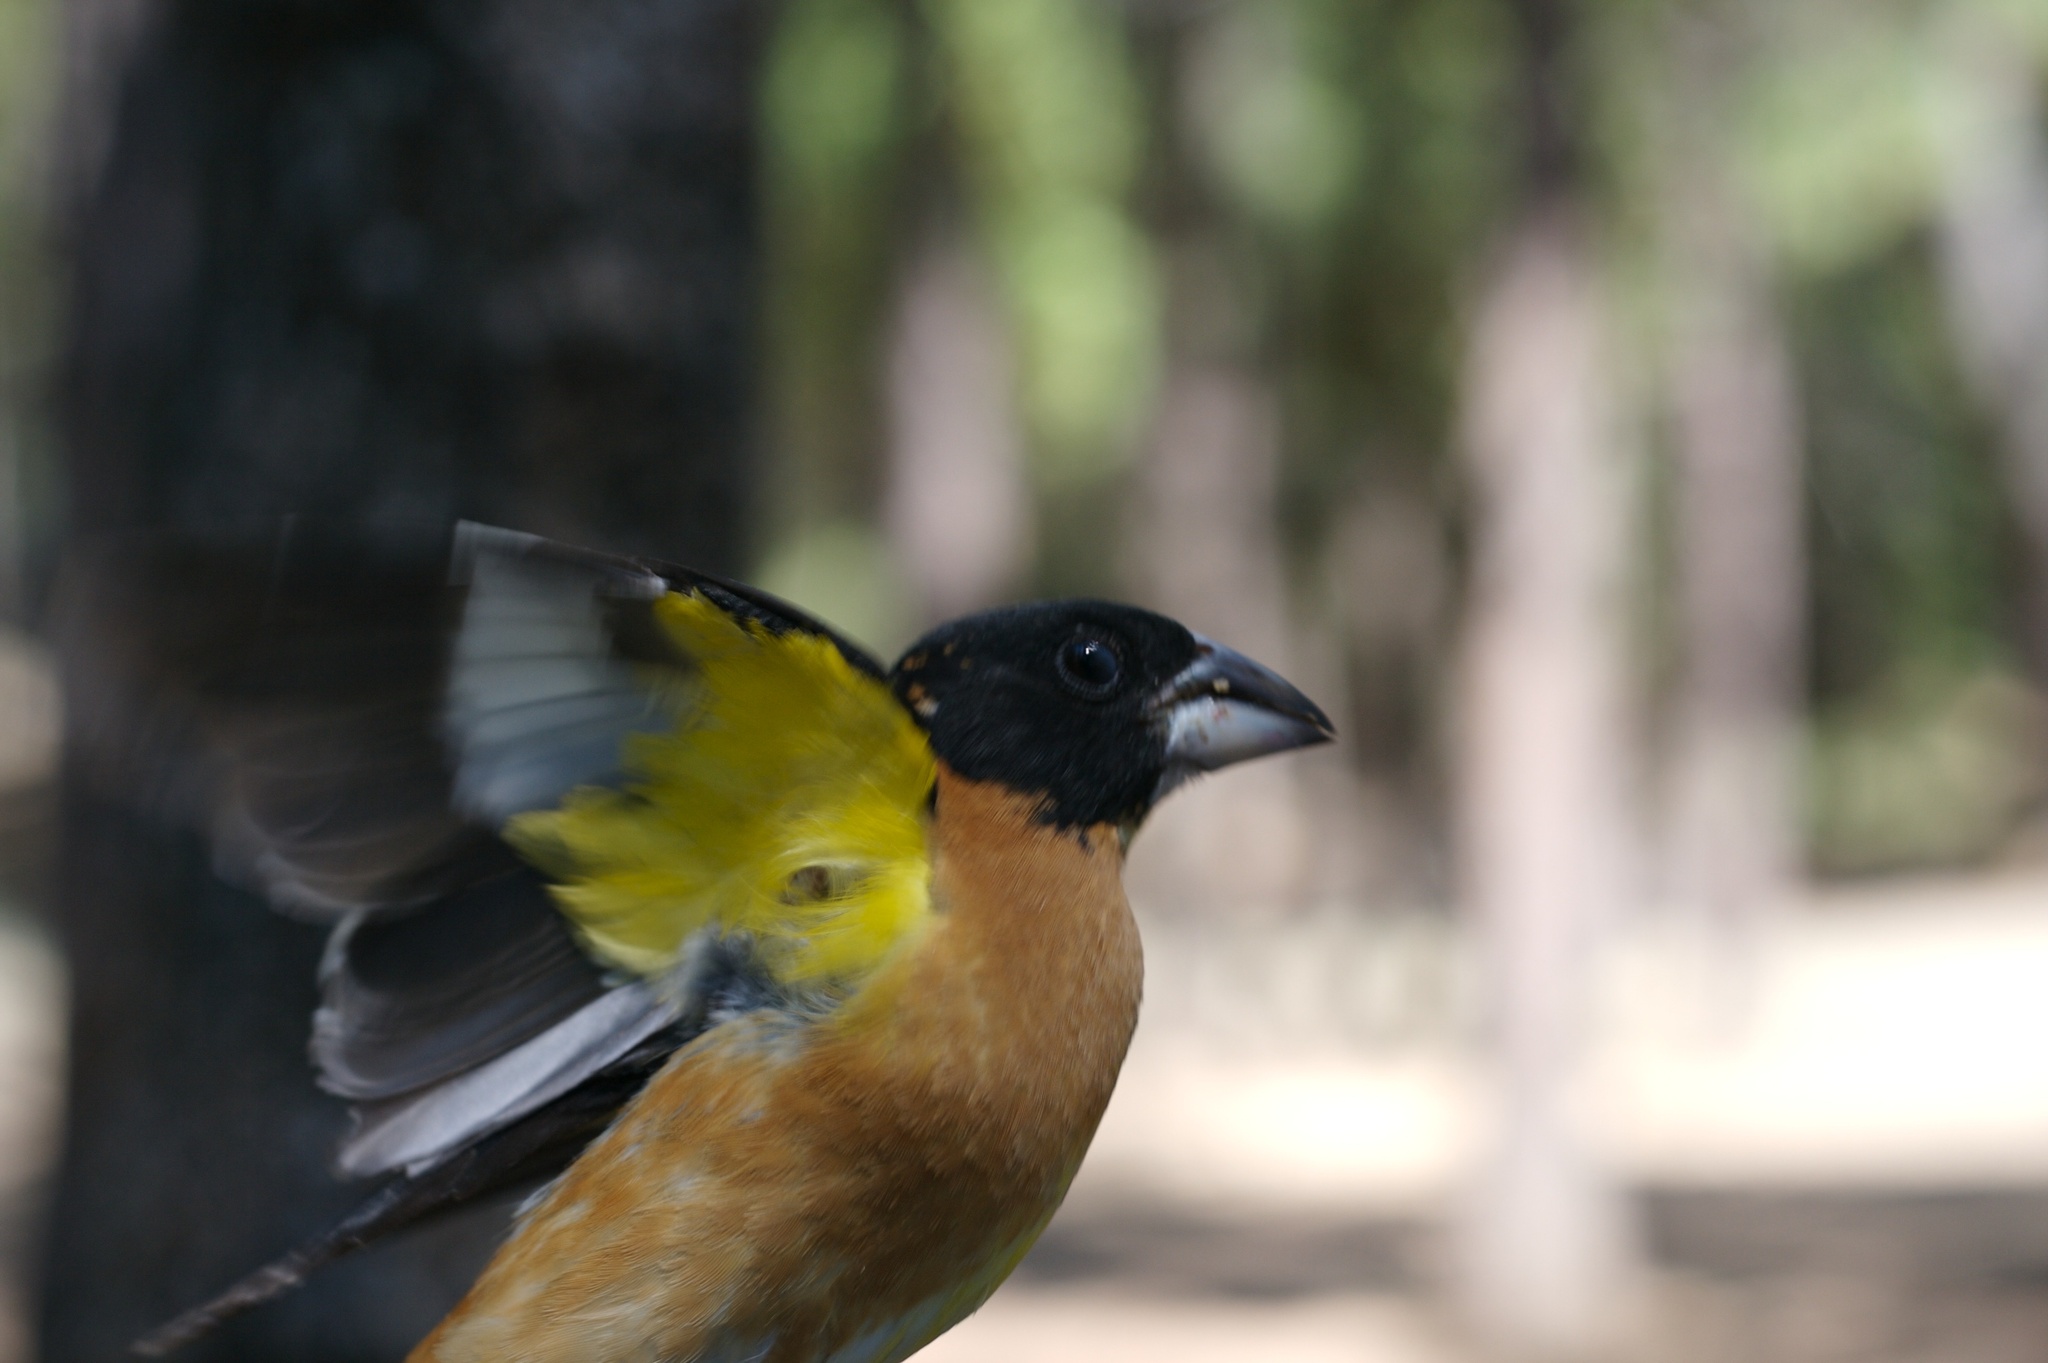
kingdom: Animalia
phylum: Chordata
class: Aves
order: Passeriformes
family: Cardinalidae
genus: Pheucticus
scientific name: Pheucticus melanocephalus
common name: Black-headed grosbeak
